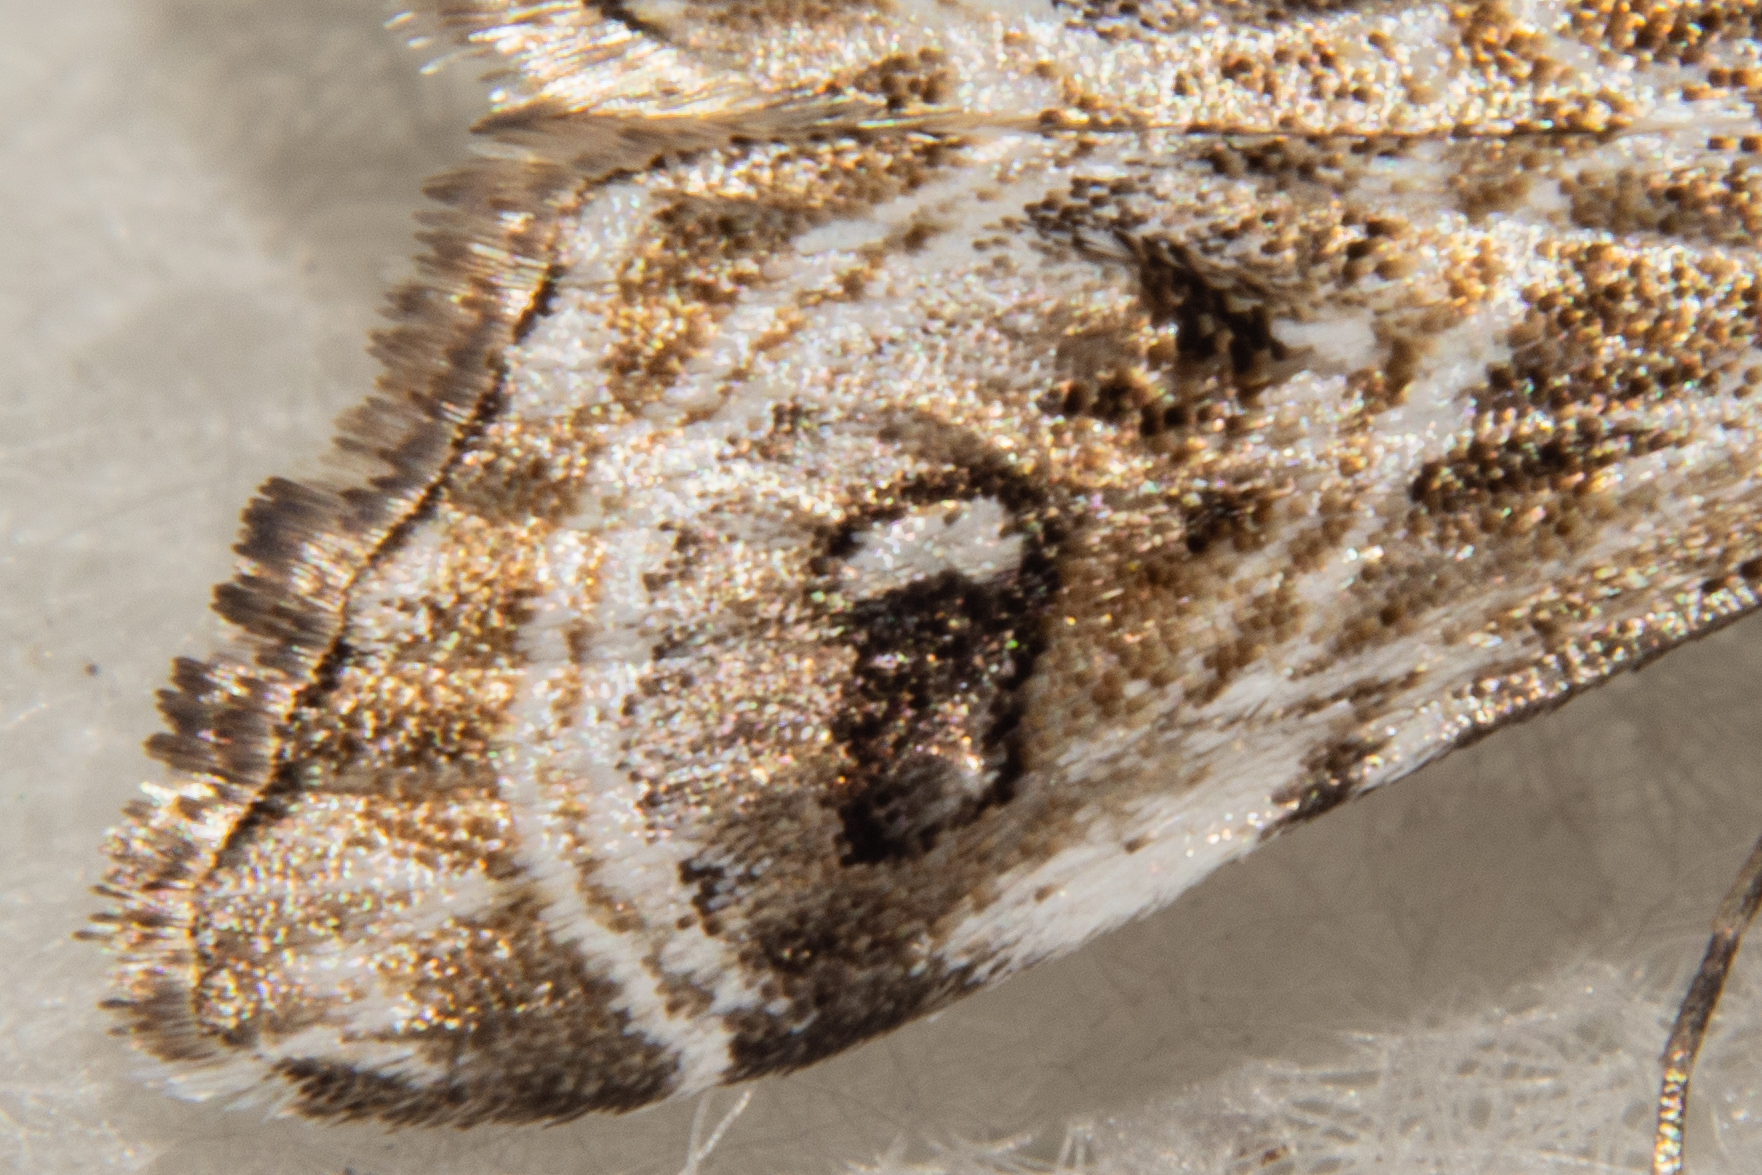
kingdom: Animalia
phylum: Arthropoda
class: Insecta
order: Lepidoptera
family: Crambidae
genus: Gadira
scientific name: Gadira acerella
